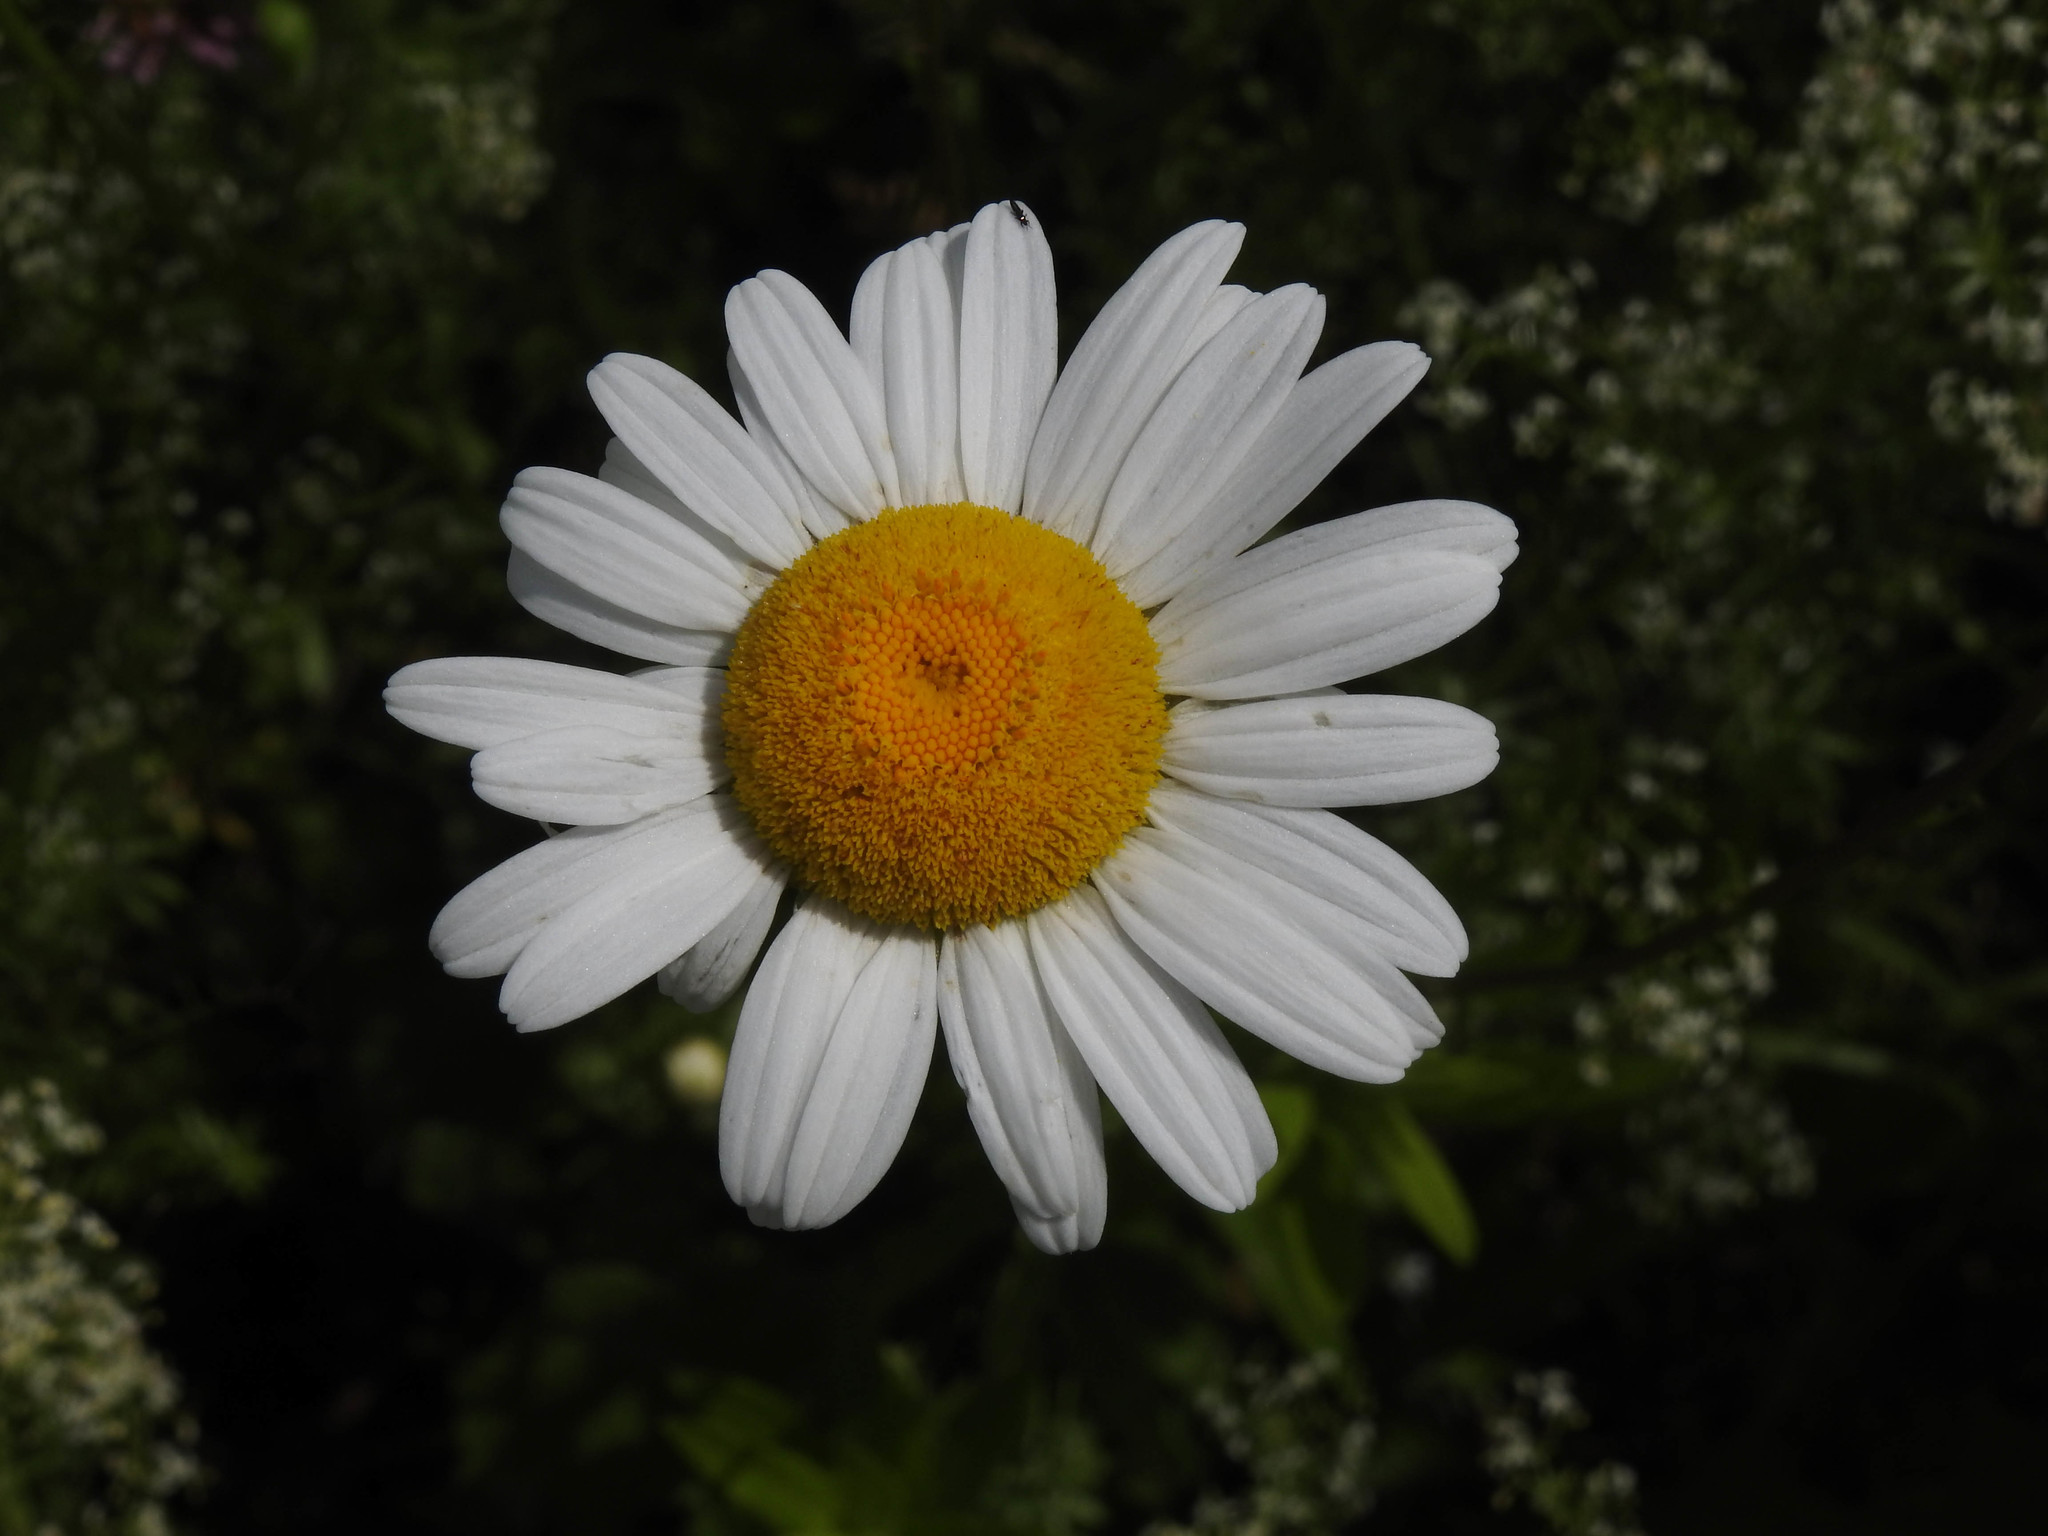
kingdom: Plantae
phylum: Tracheophyta
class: Magnoliopsida
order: Asterales
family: Asteraceae
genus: Leucanthemum
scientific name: Leucanthemum vulgare
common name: Oxeye daisy
